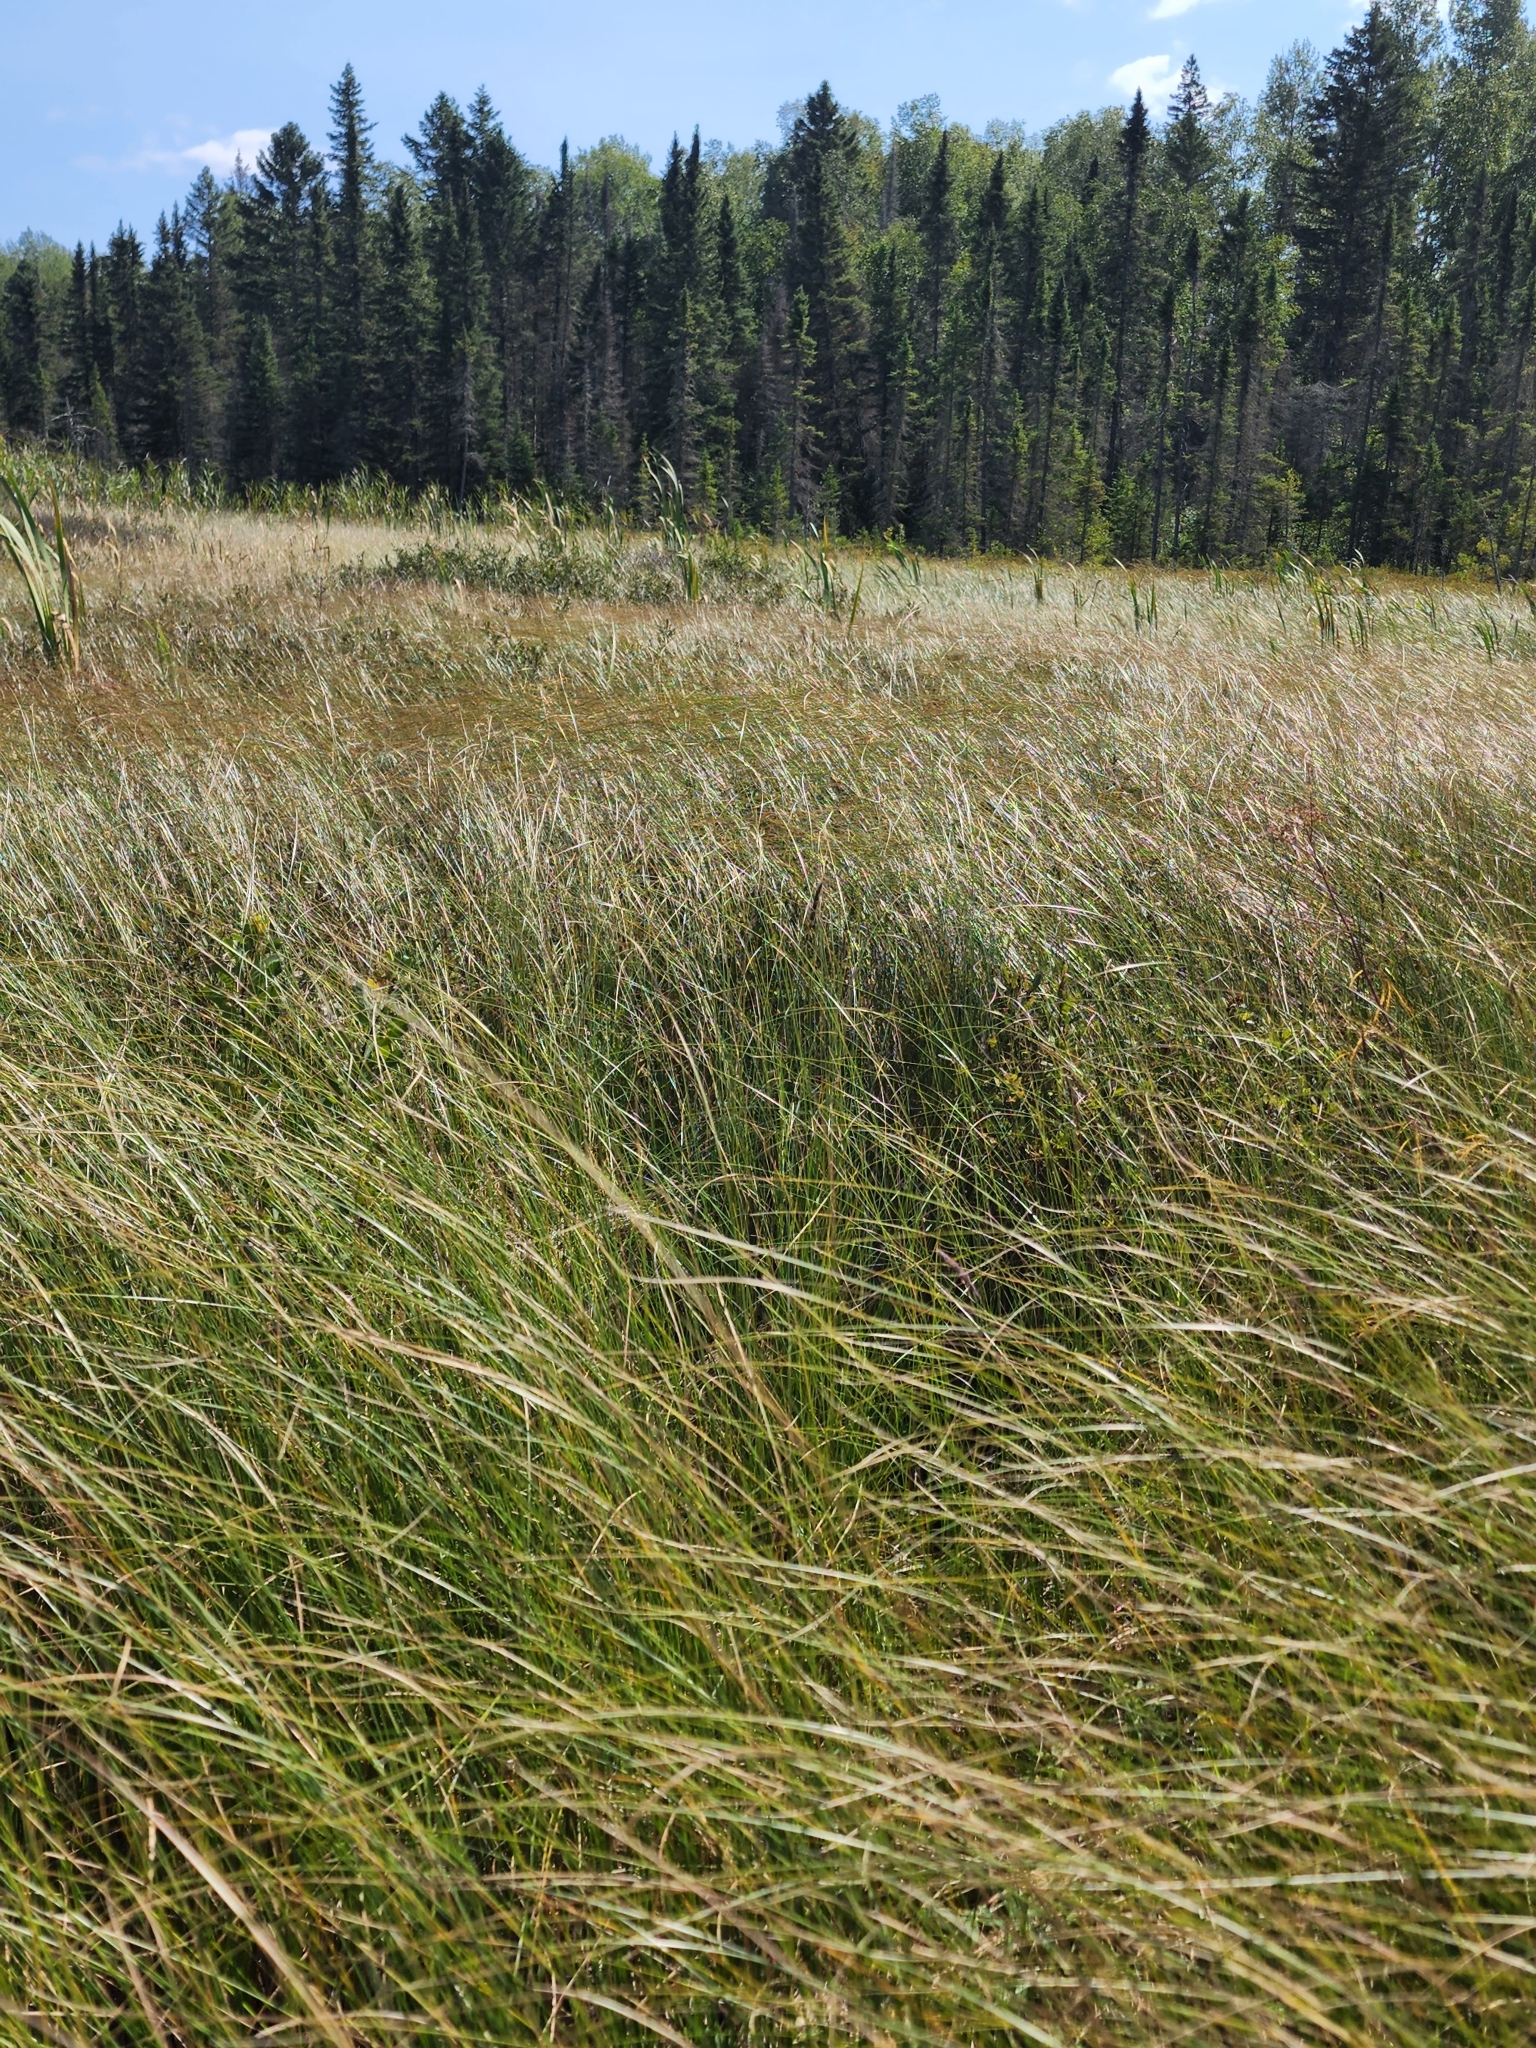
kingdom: Plantae
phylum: Tracheophyta
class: Liliopsida
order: Poales
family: Cyperaceae
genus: Carex
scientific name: Carex lasiocarpa
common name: Slender sedge
